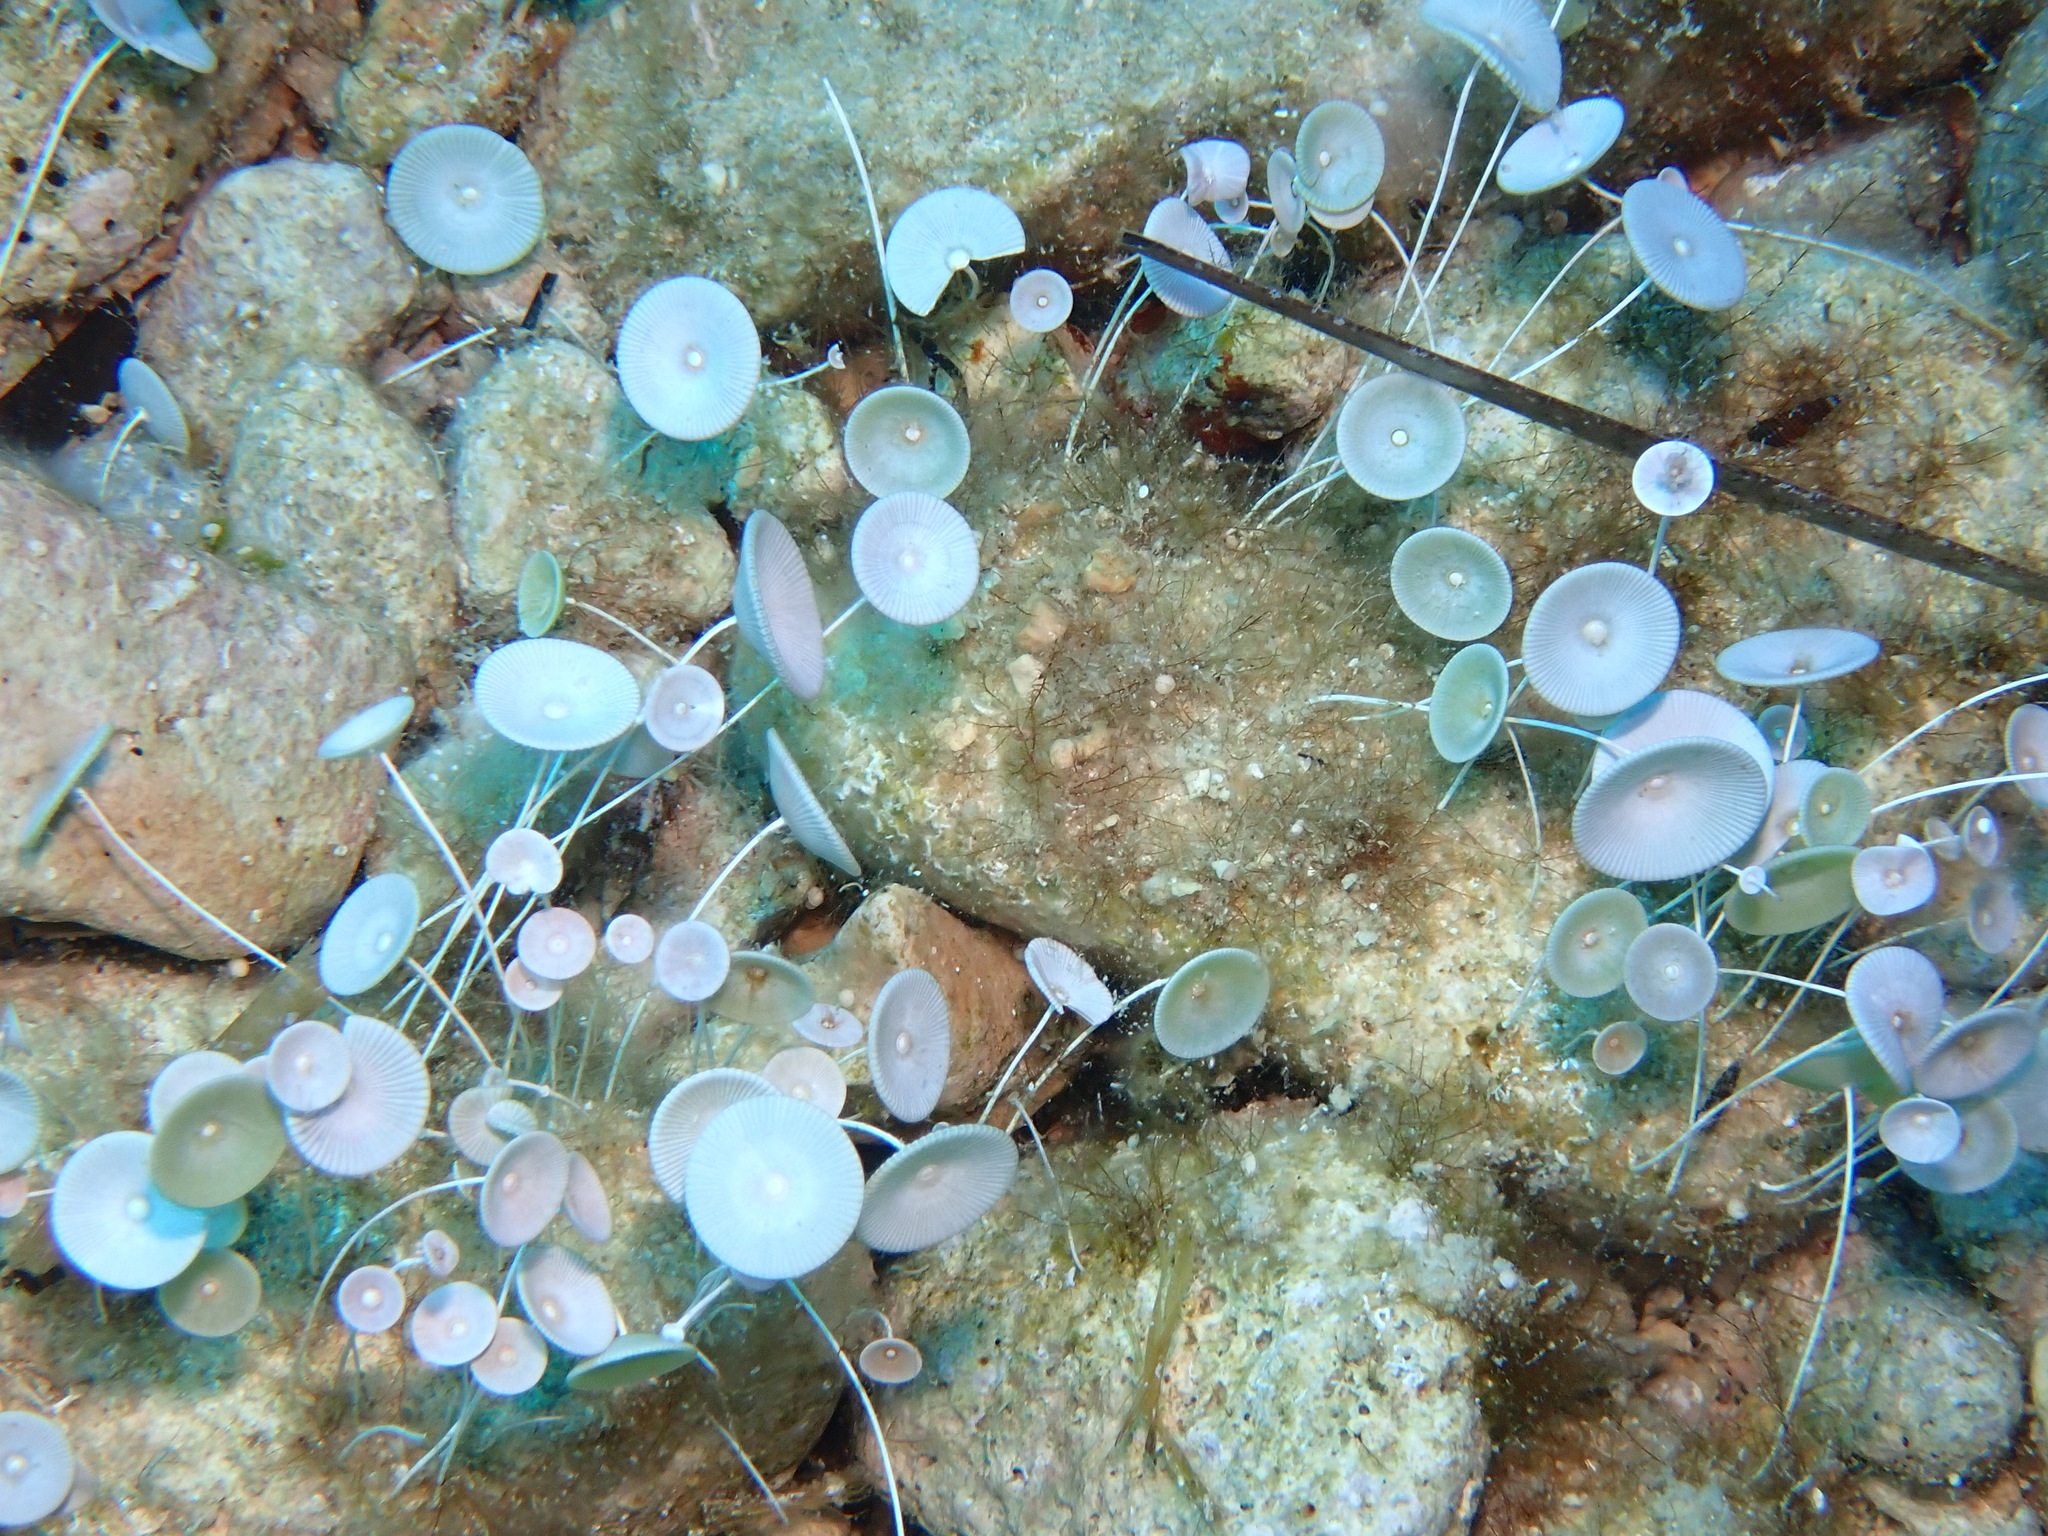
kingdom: Plantae
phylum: Chlorophyta
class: Ulvophyceae
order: Dasycladales
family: Polyphysaceae
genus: Acetabularia
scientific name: Acetabularia acetabulum
